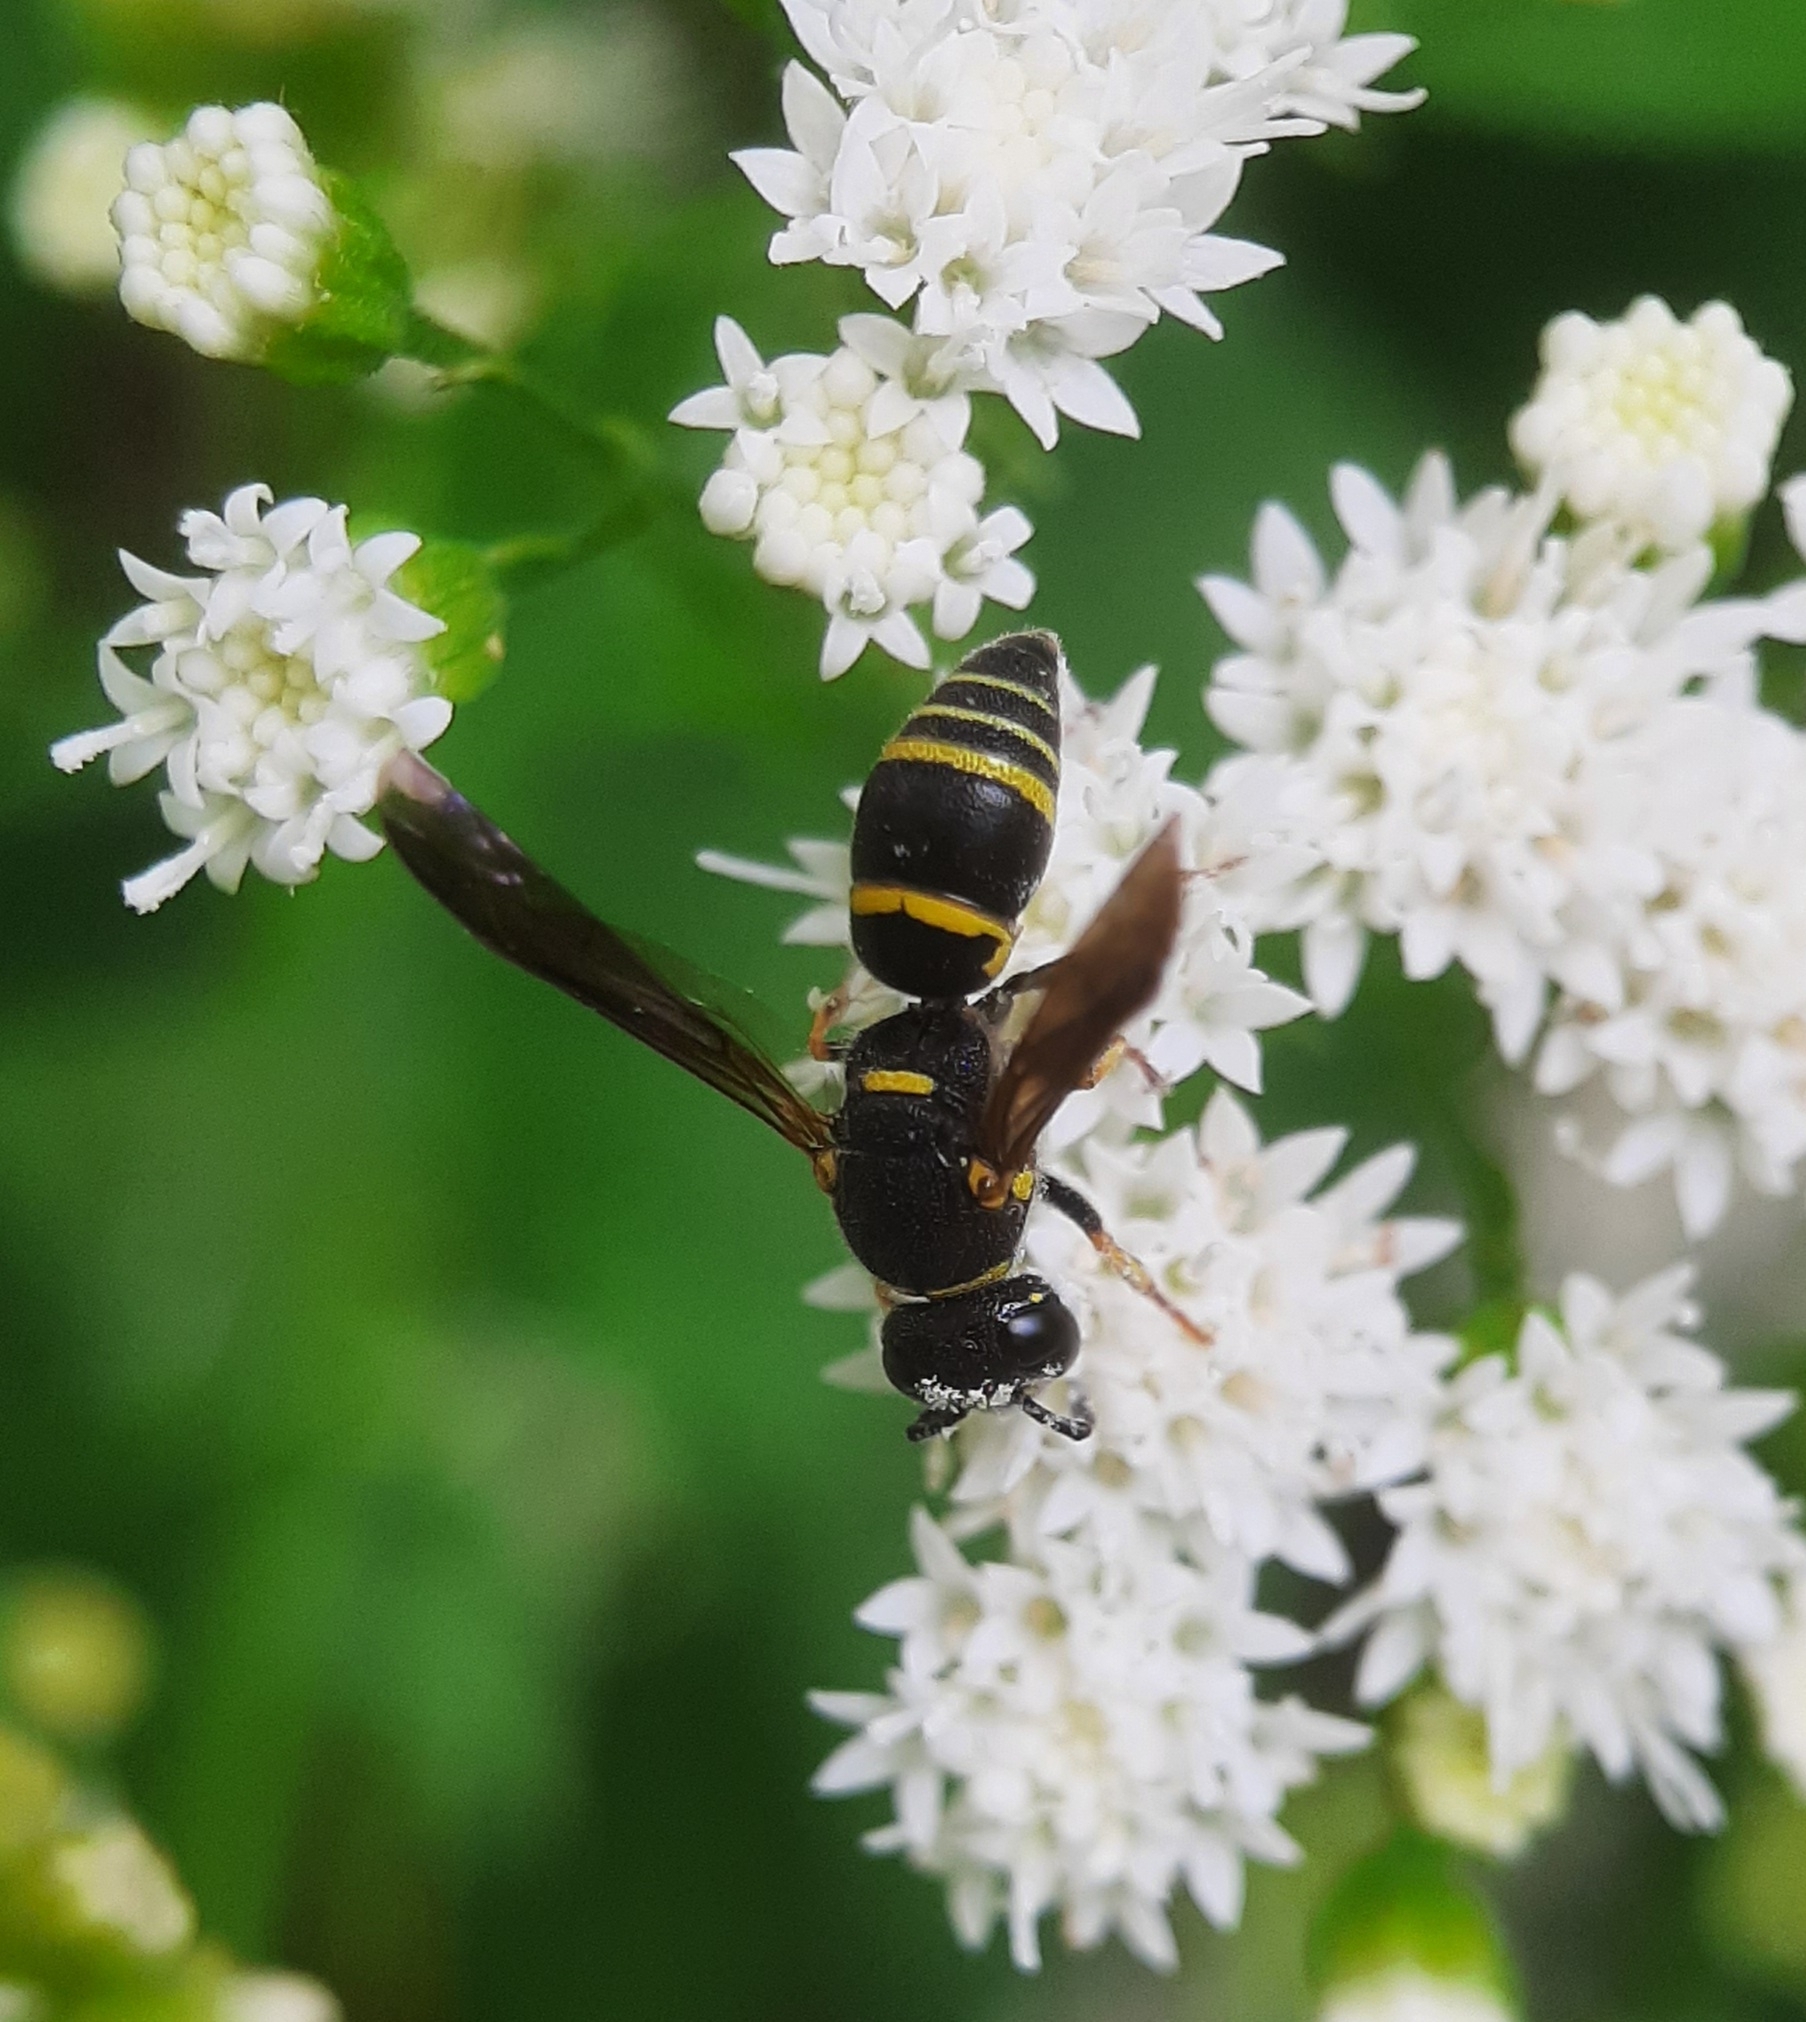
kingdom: Animalia
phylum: Arthropoda
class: Insecta
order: Hymenoptera
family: Eumenidae
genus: Euodynerus
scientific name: Euodynerus foraminatus
